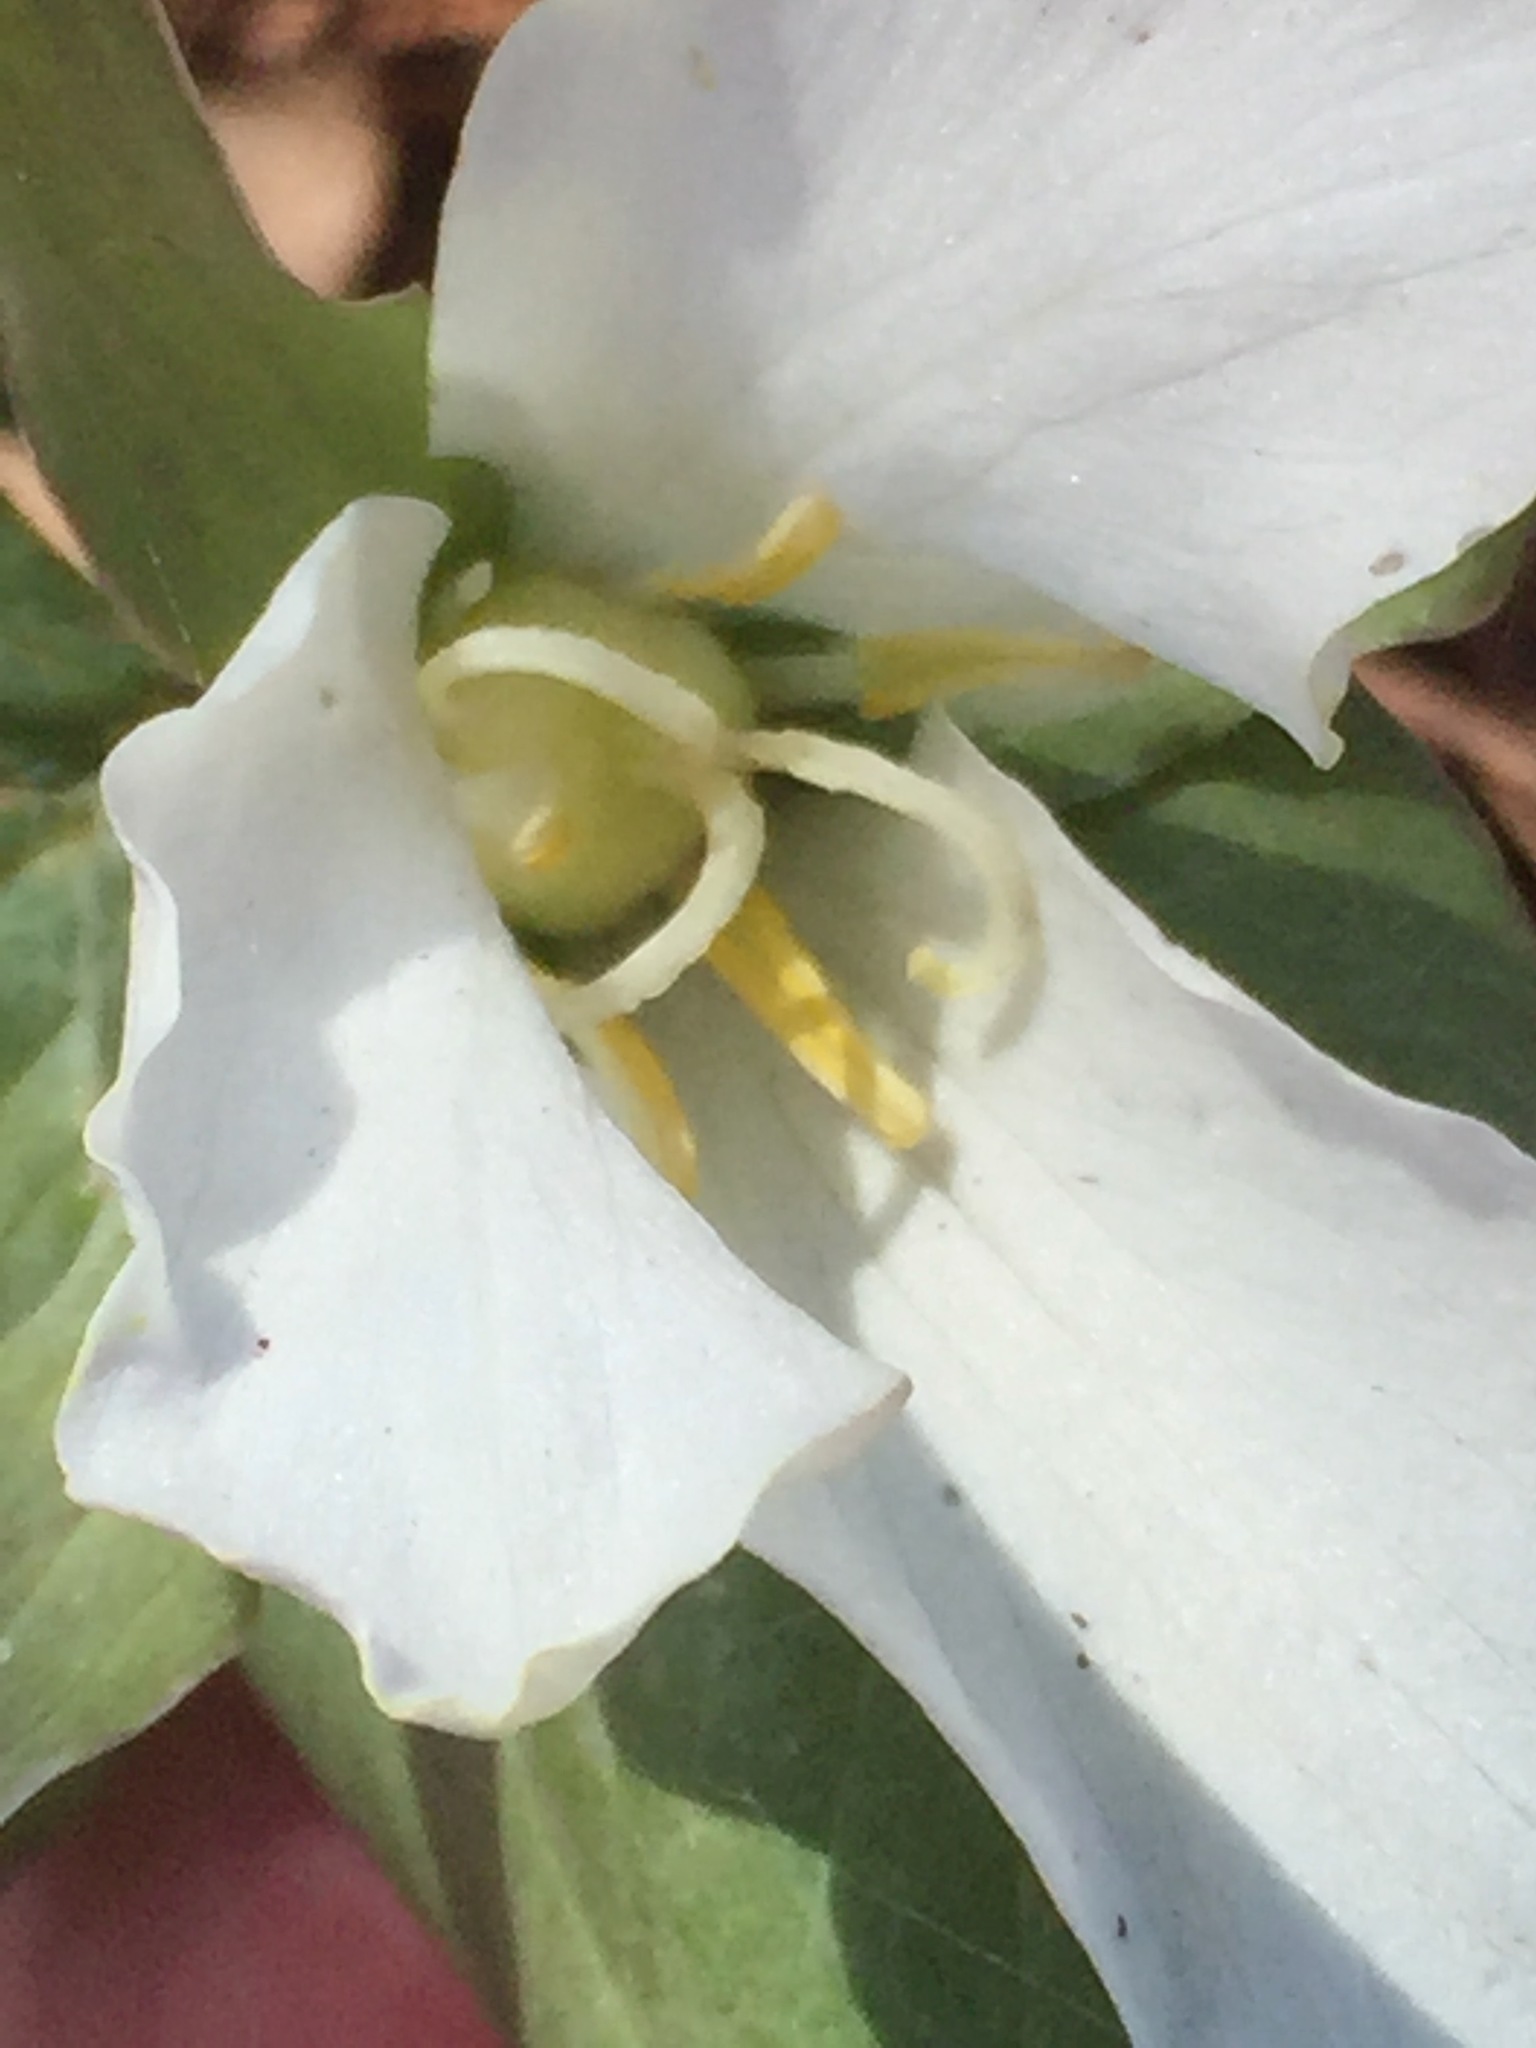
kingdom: Plantae
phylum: Tracheophyta
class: Liliopsida
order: Liliales
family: Melanthiaceae
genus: Trillium
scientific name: Trillium nivale
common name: Dwarf white trillium
